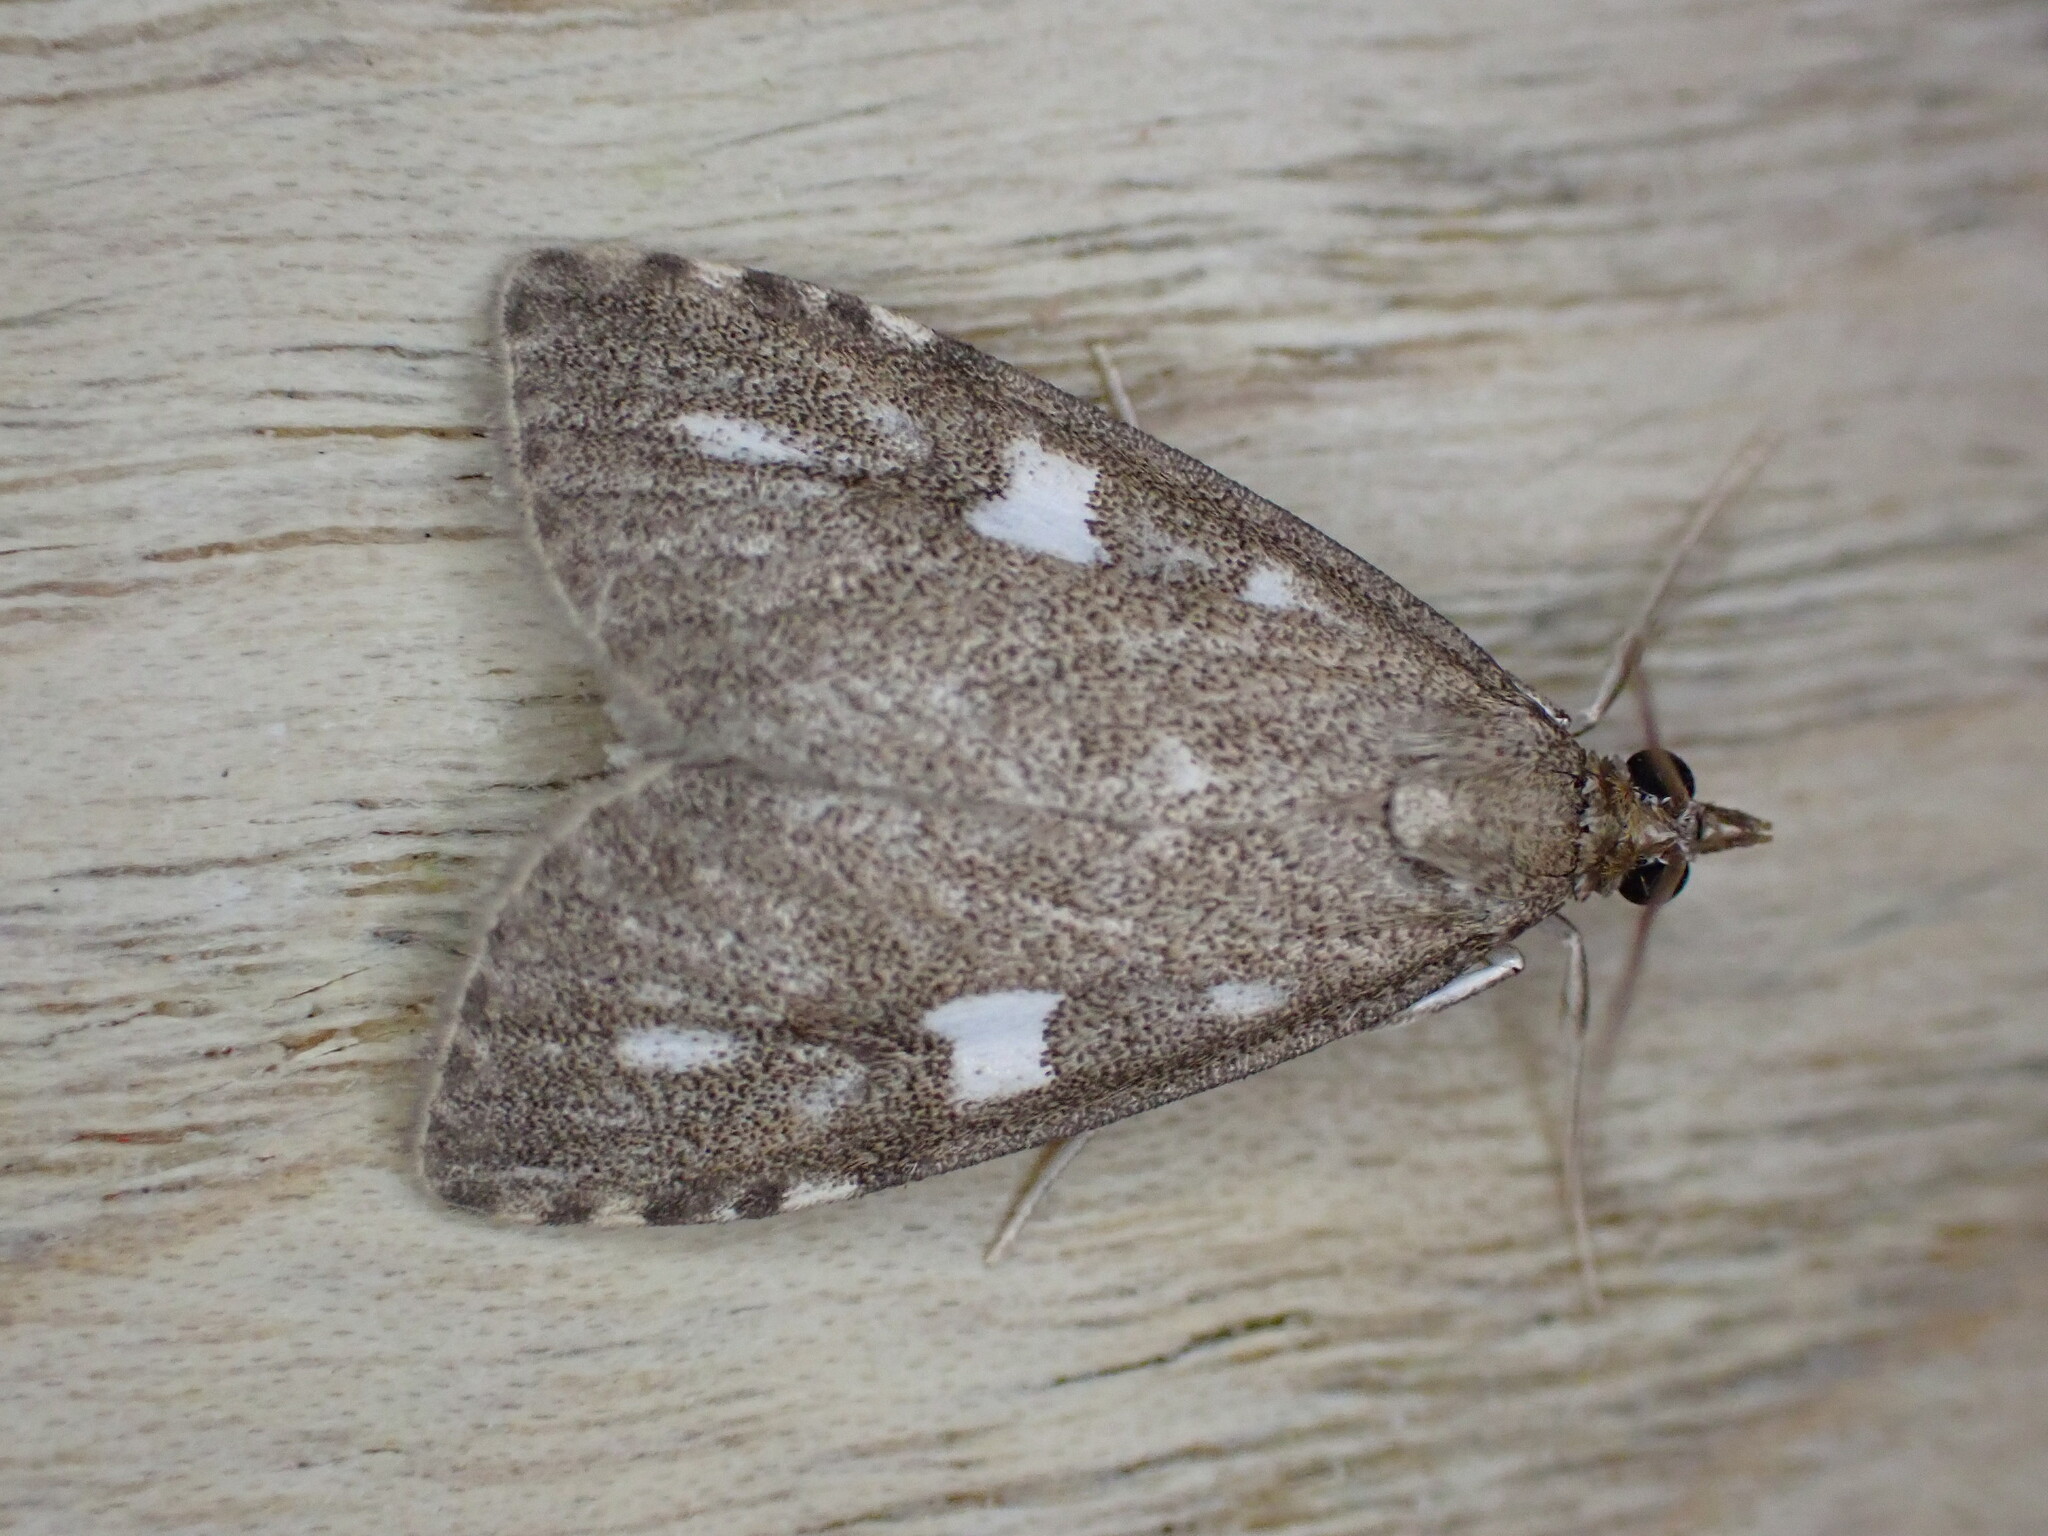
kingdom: Animalia
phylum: Arthropoda
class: Insecta
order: Lepidoptera
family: Crambidae
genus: Udea
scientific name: Udea olivalis
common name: Olive pearl
